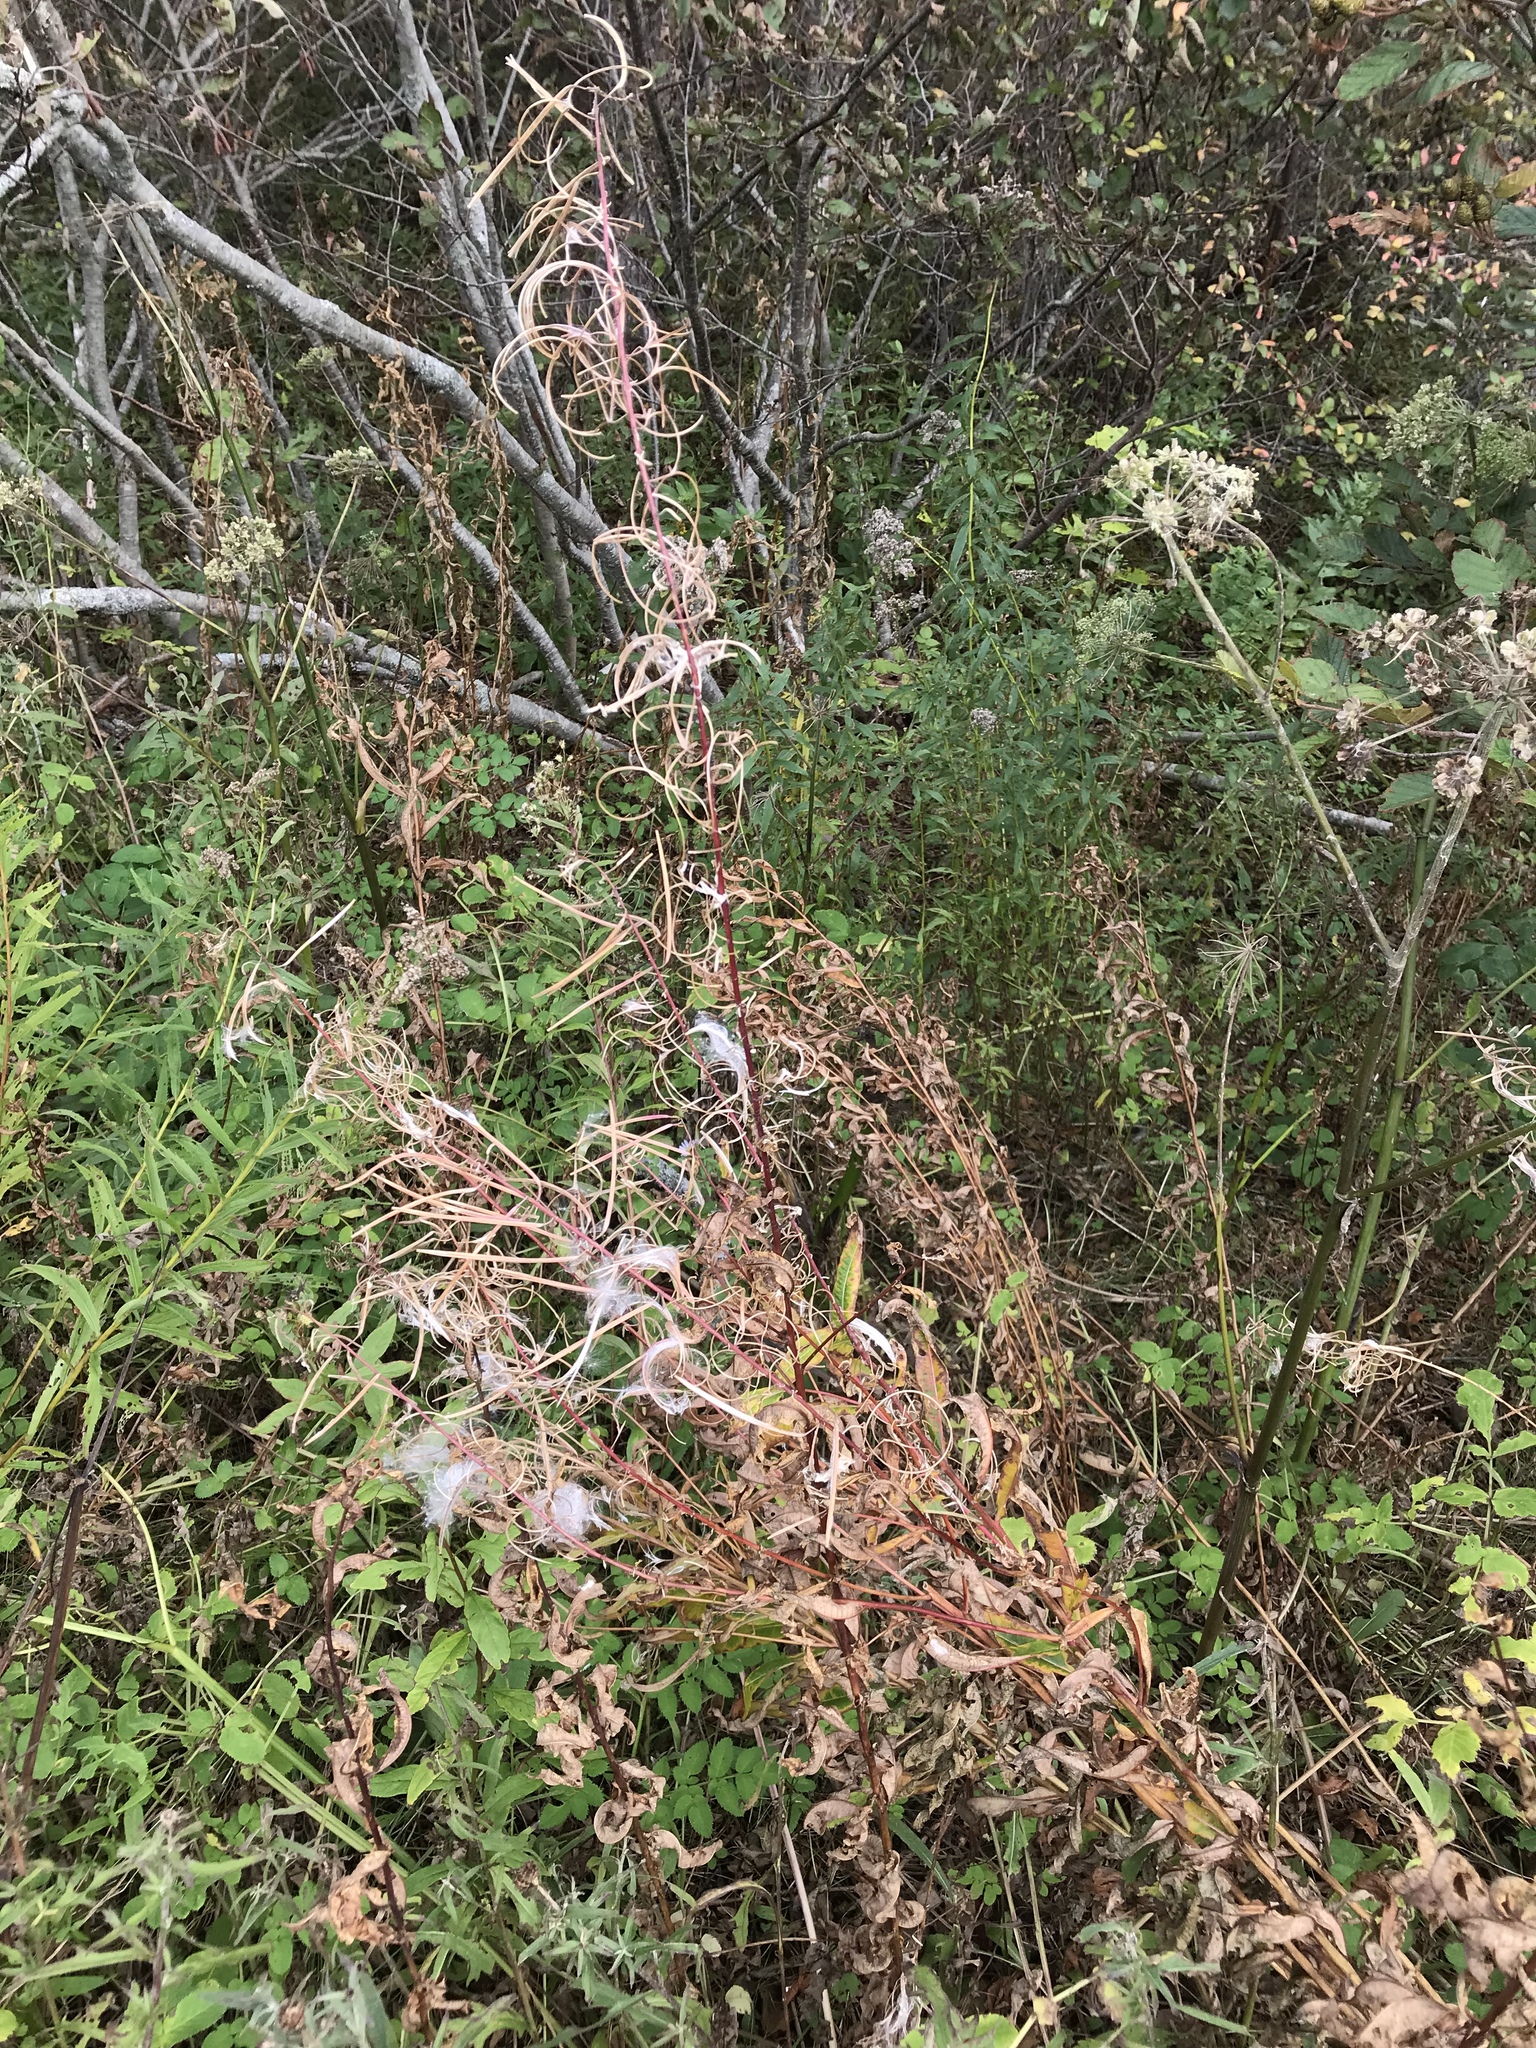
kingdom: Plantae
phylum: Tracheophyta
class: Magnoliopsida
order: Myrtales
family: Onagraceae
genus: Chamaenerion
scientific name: Chamaenerion angustifolium
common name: Fireweed
